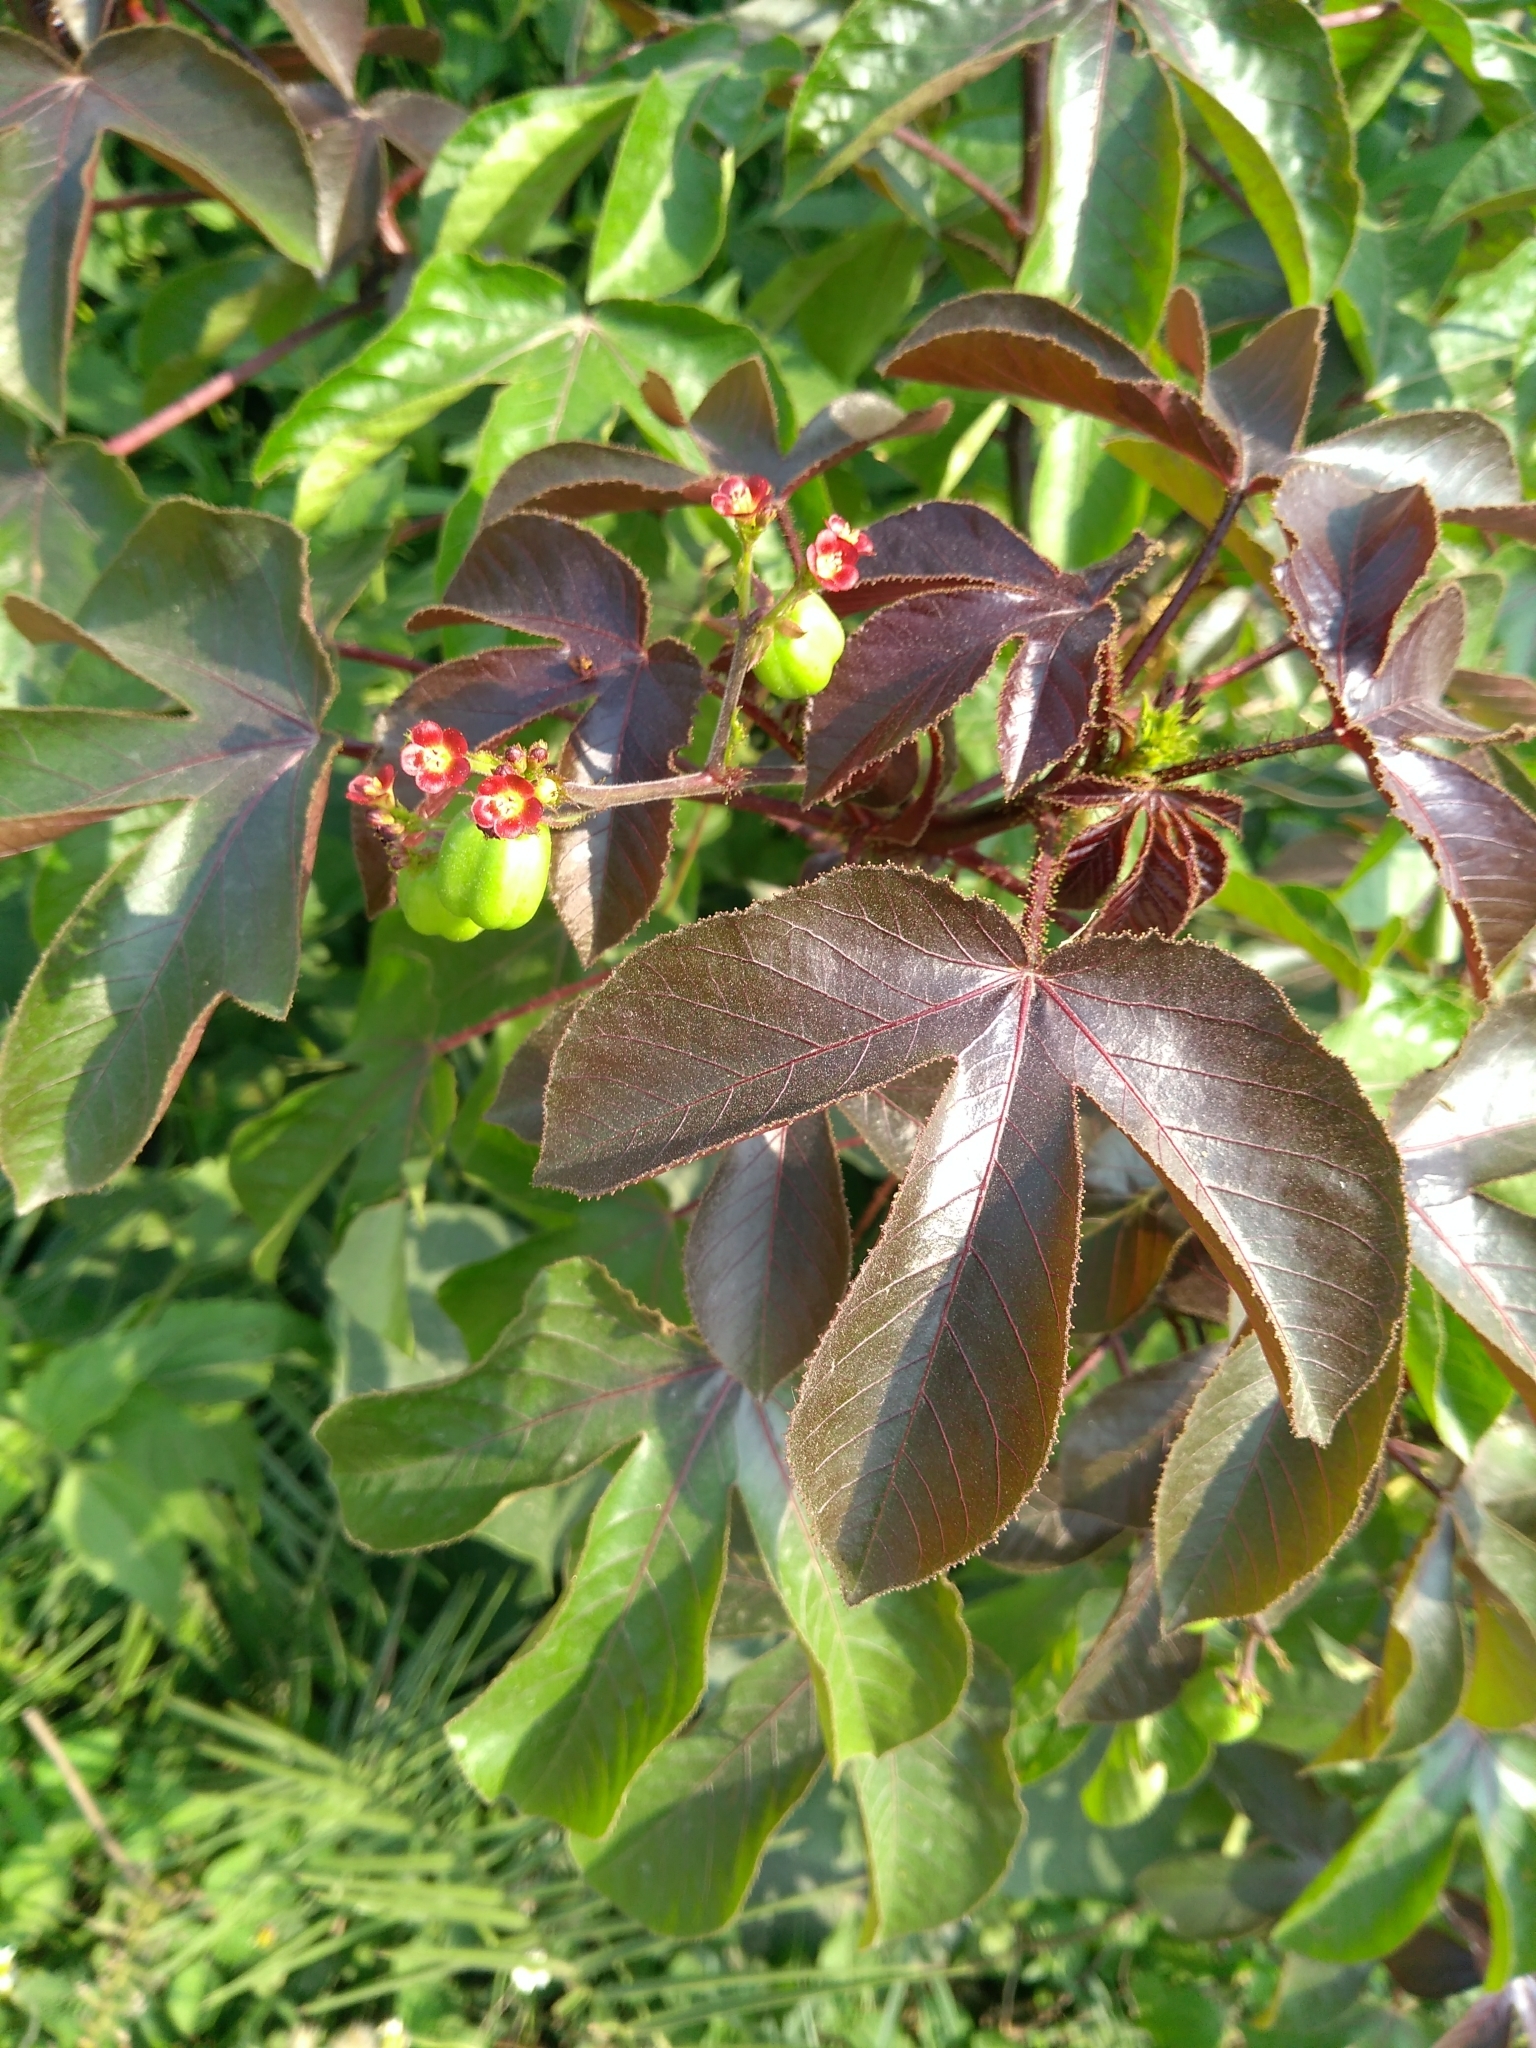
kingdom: Plantae
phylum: Tracheophyta
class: Magnoliopsida
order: Malpighiales
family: Euphorbiaceae
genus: Jatropha
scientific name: Jatropha gossypiifolia
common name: Bellyache bush
